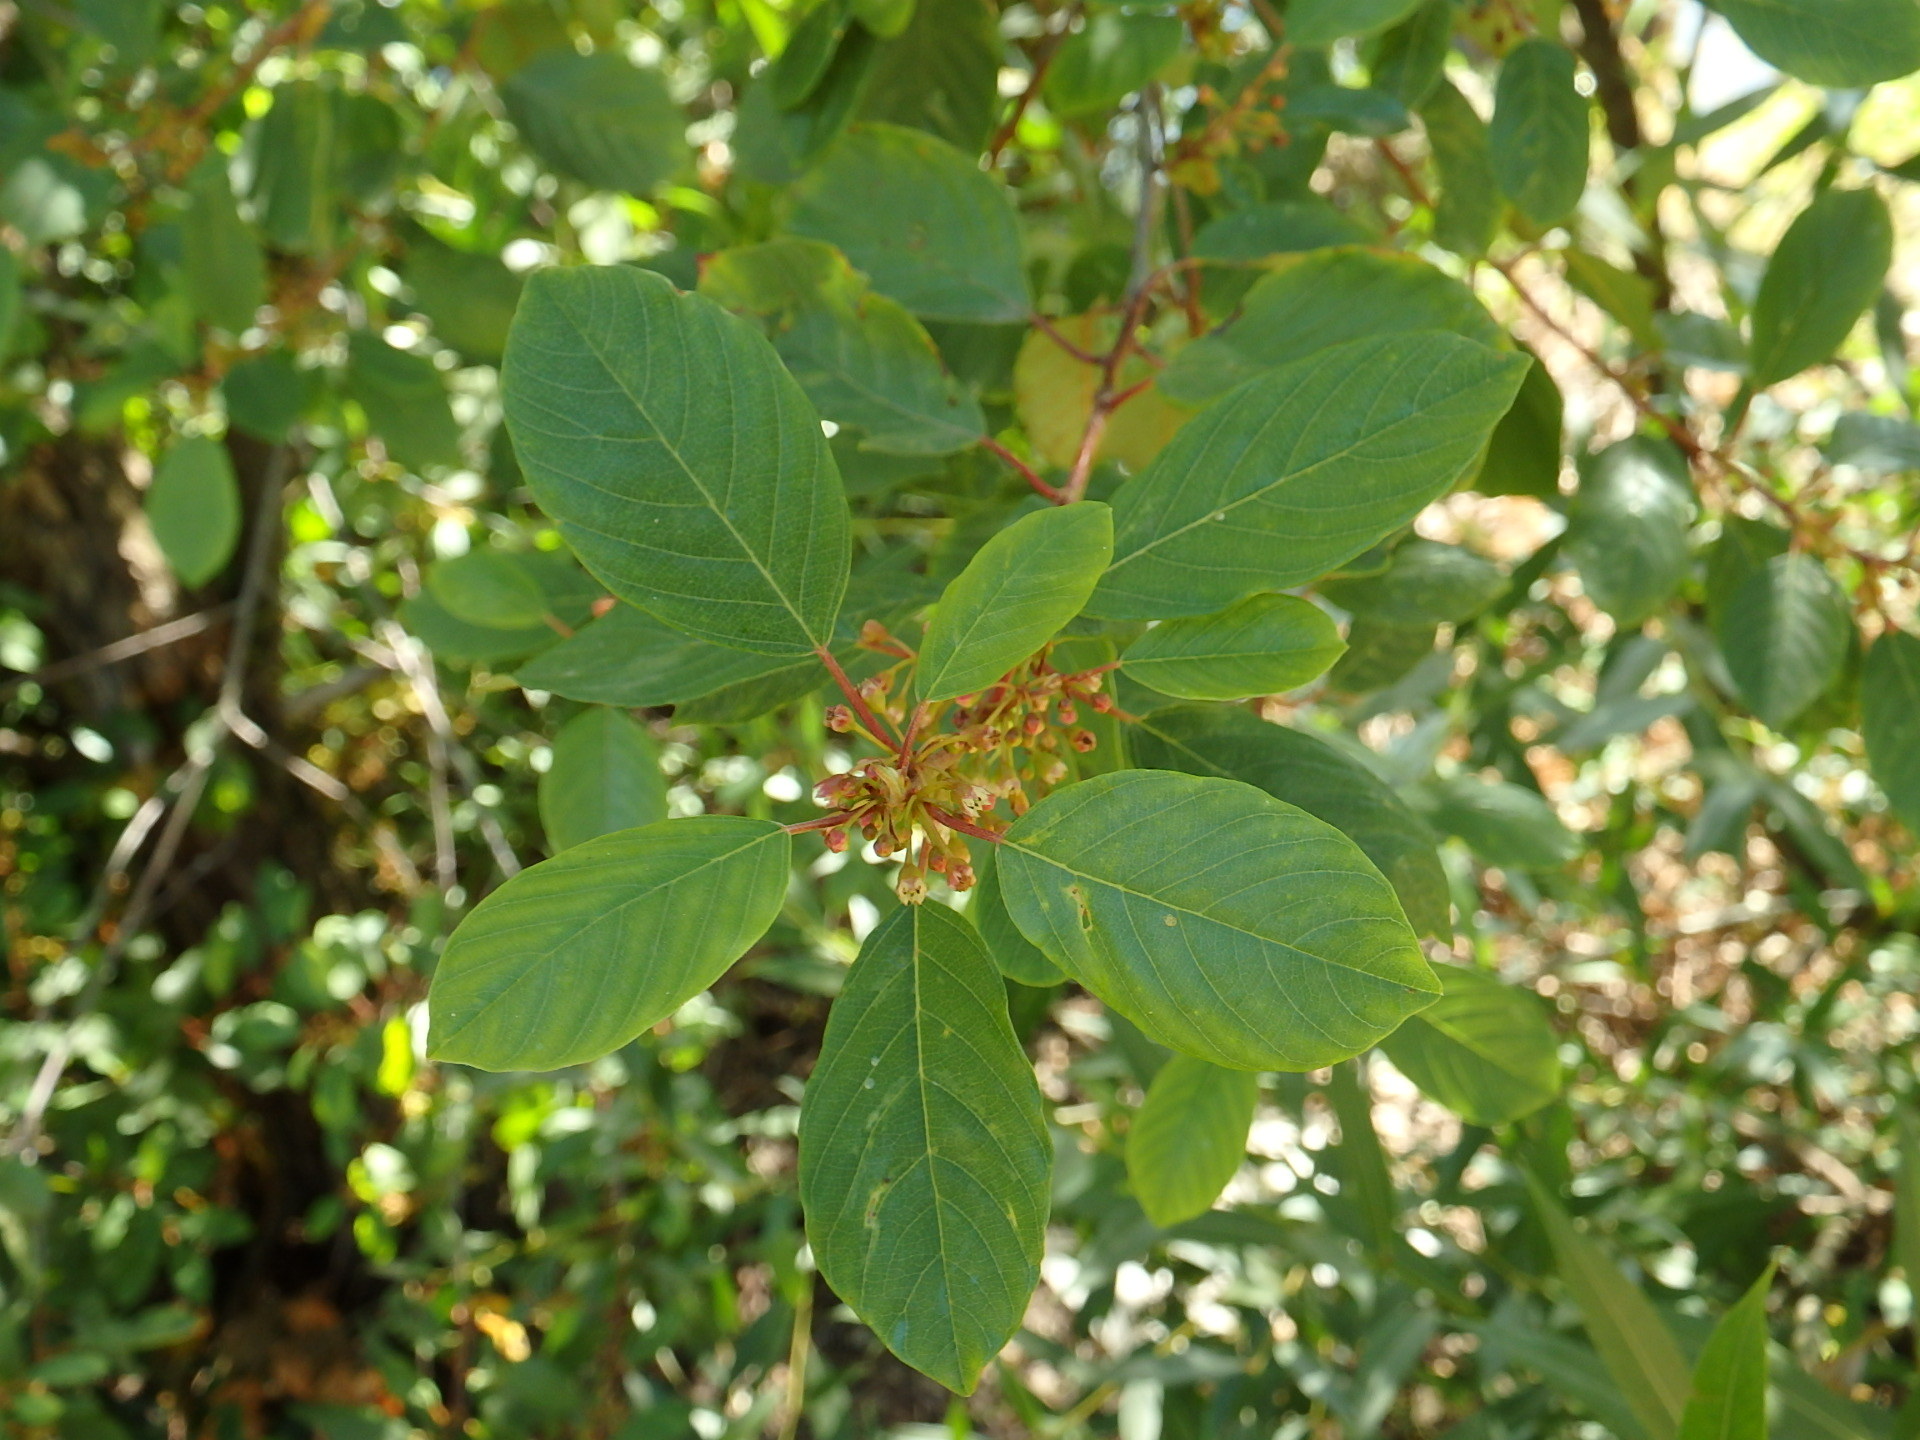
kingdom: Plantae
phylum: Tracheophyta
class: Magnoliopsida
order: Rosales
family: Rhamnaceae
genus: Frangula
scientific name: Frangula alnus
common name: Alder buckthorn
